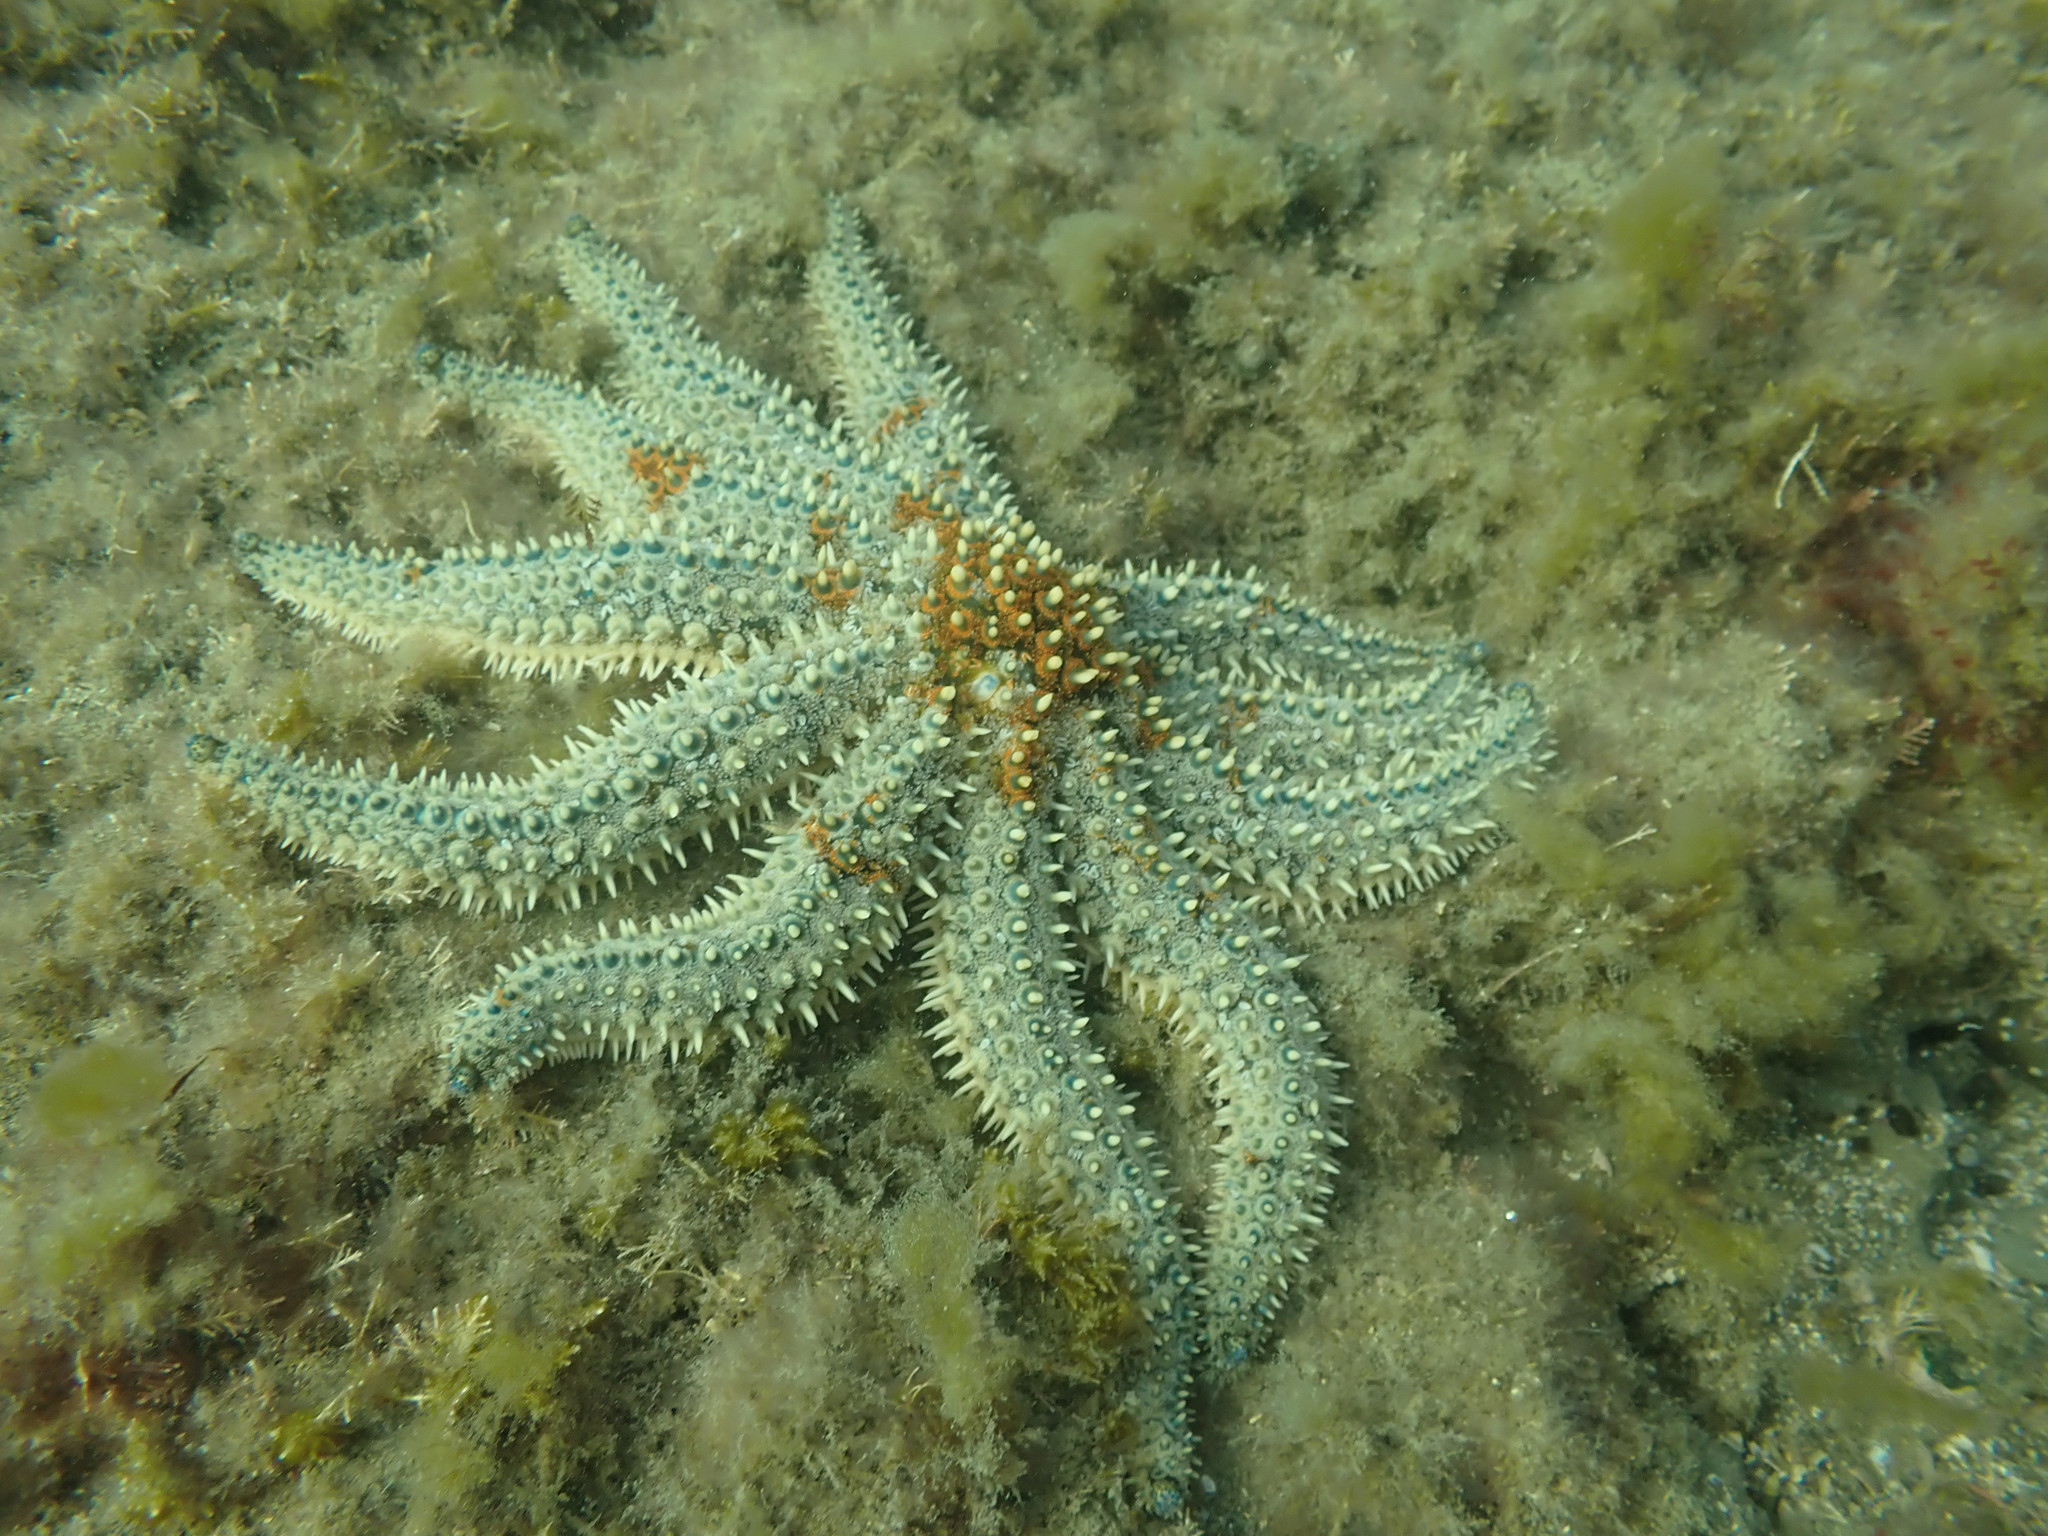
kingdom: Animalia
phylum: Echinodermata
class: Asteroidea
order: Forcipulatida
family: Asteriidae
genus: Coscinasterias
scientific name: Coscinasterias muricata
